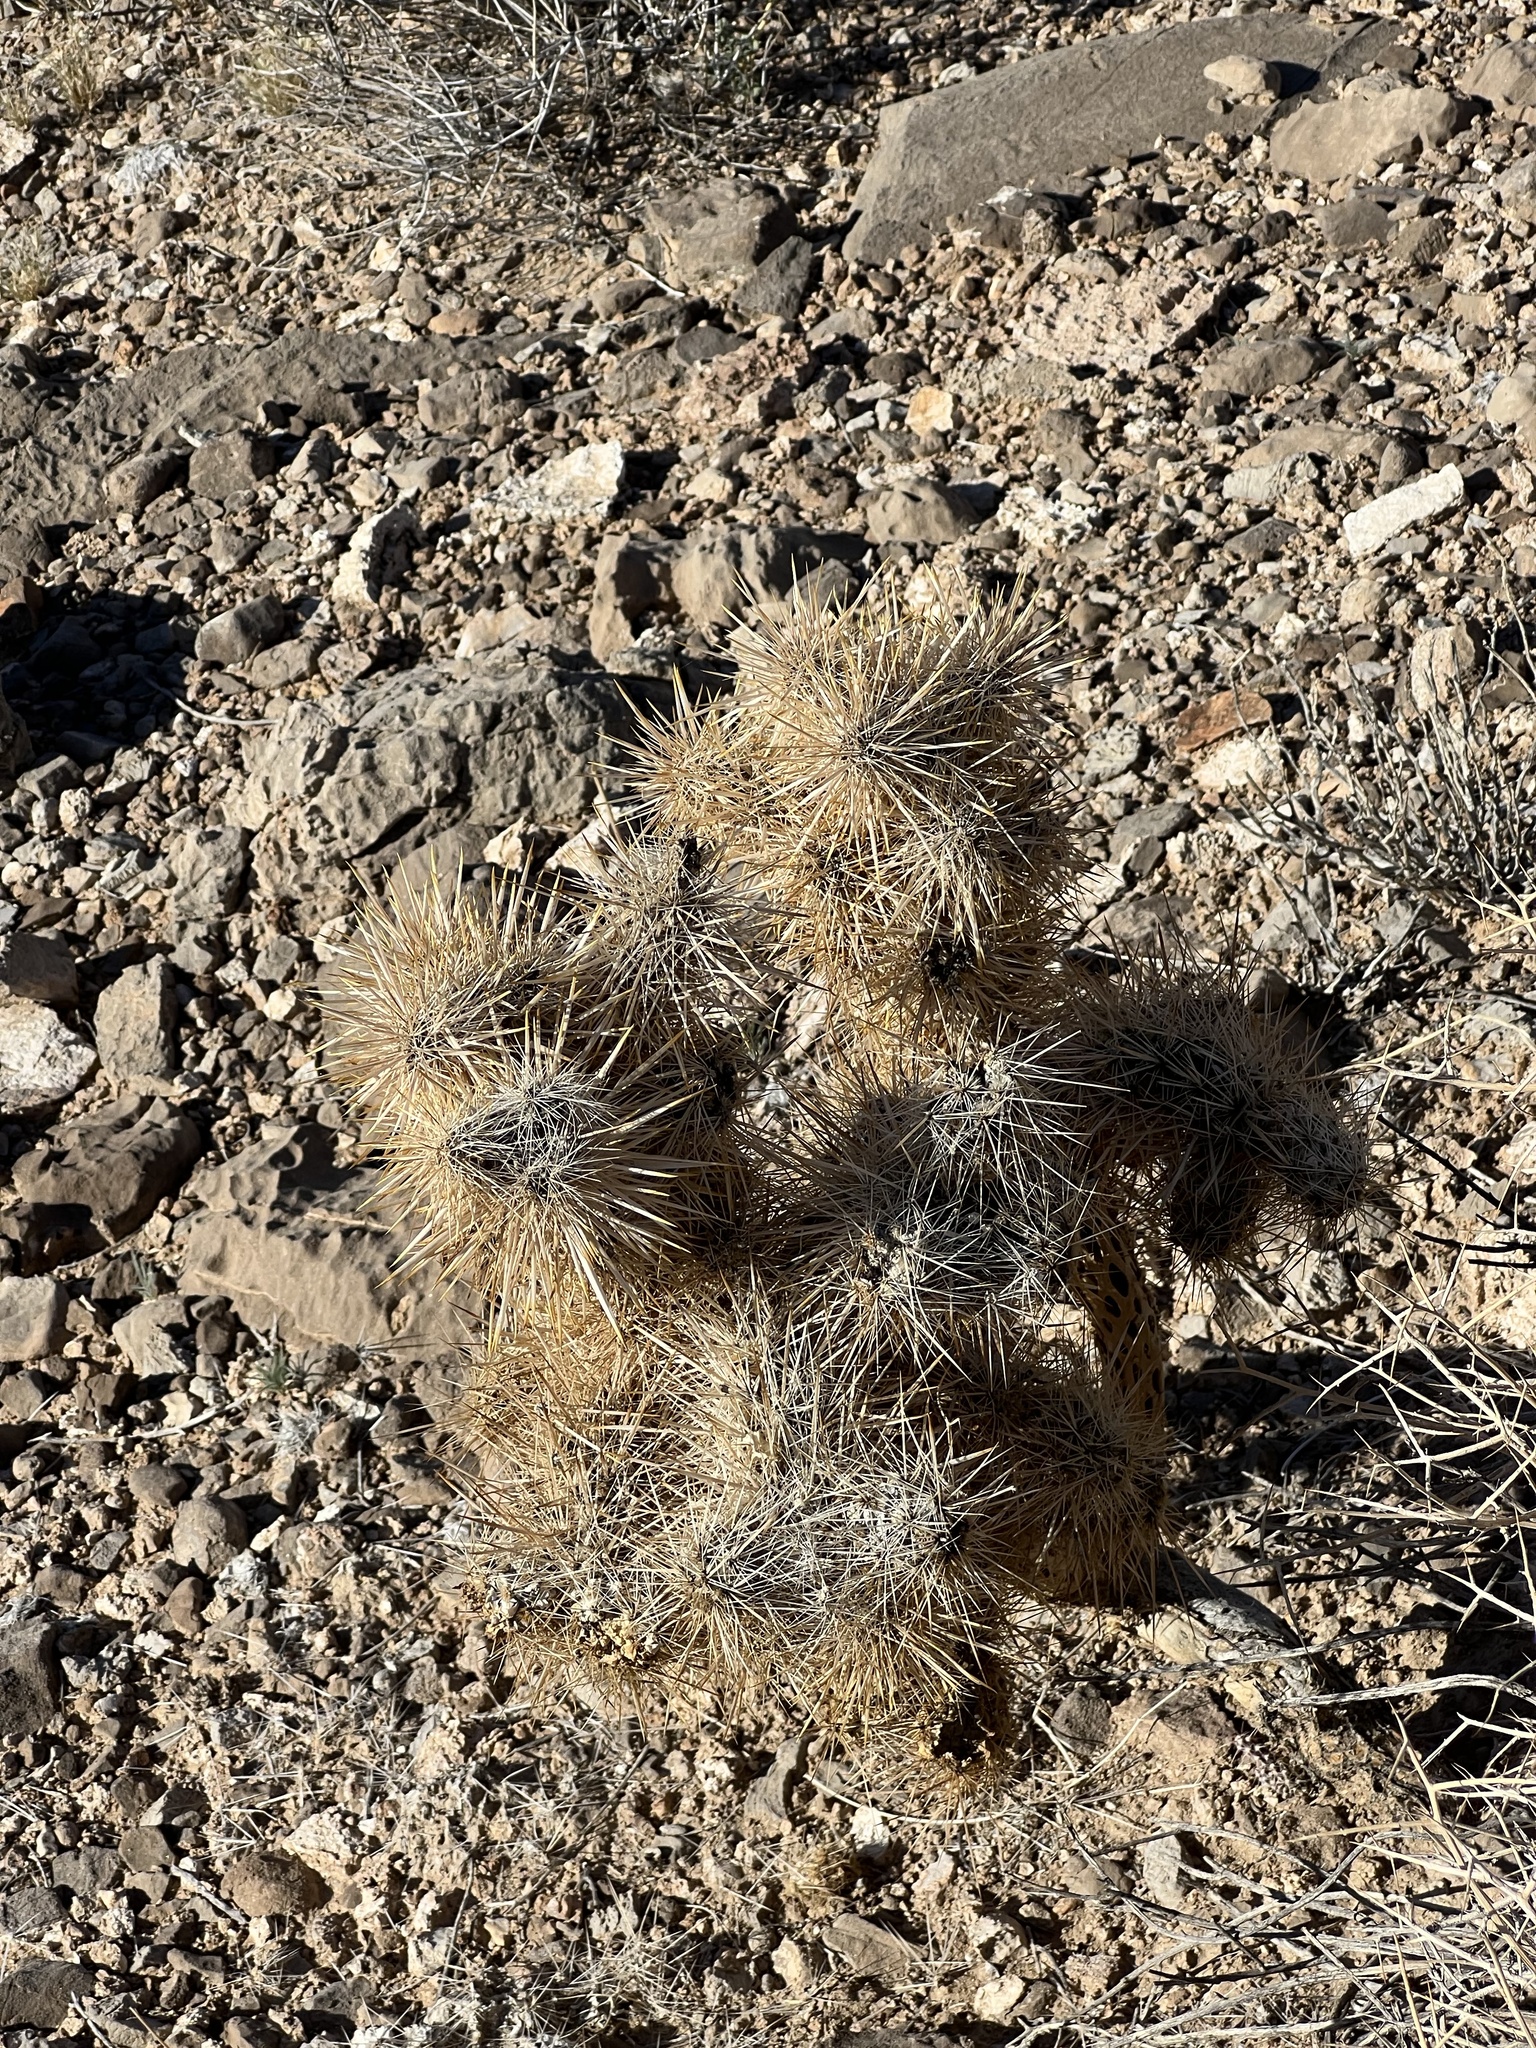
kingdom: Plantae
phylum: Tracheophyta
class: Magnoliopsida
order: Caryophyllales
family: Cactaceae
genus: Cylindropuntia
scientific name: Cylindropuntia echinocarpa
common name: Ground cholla
